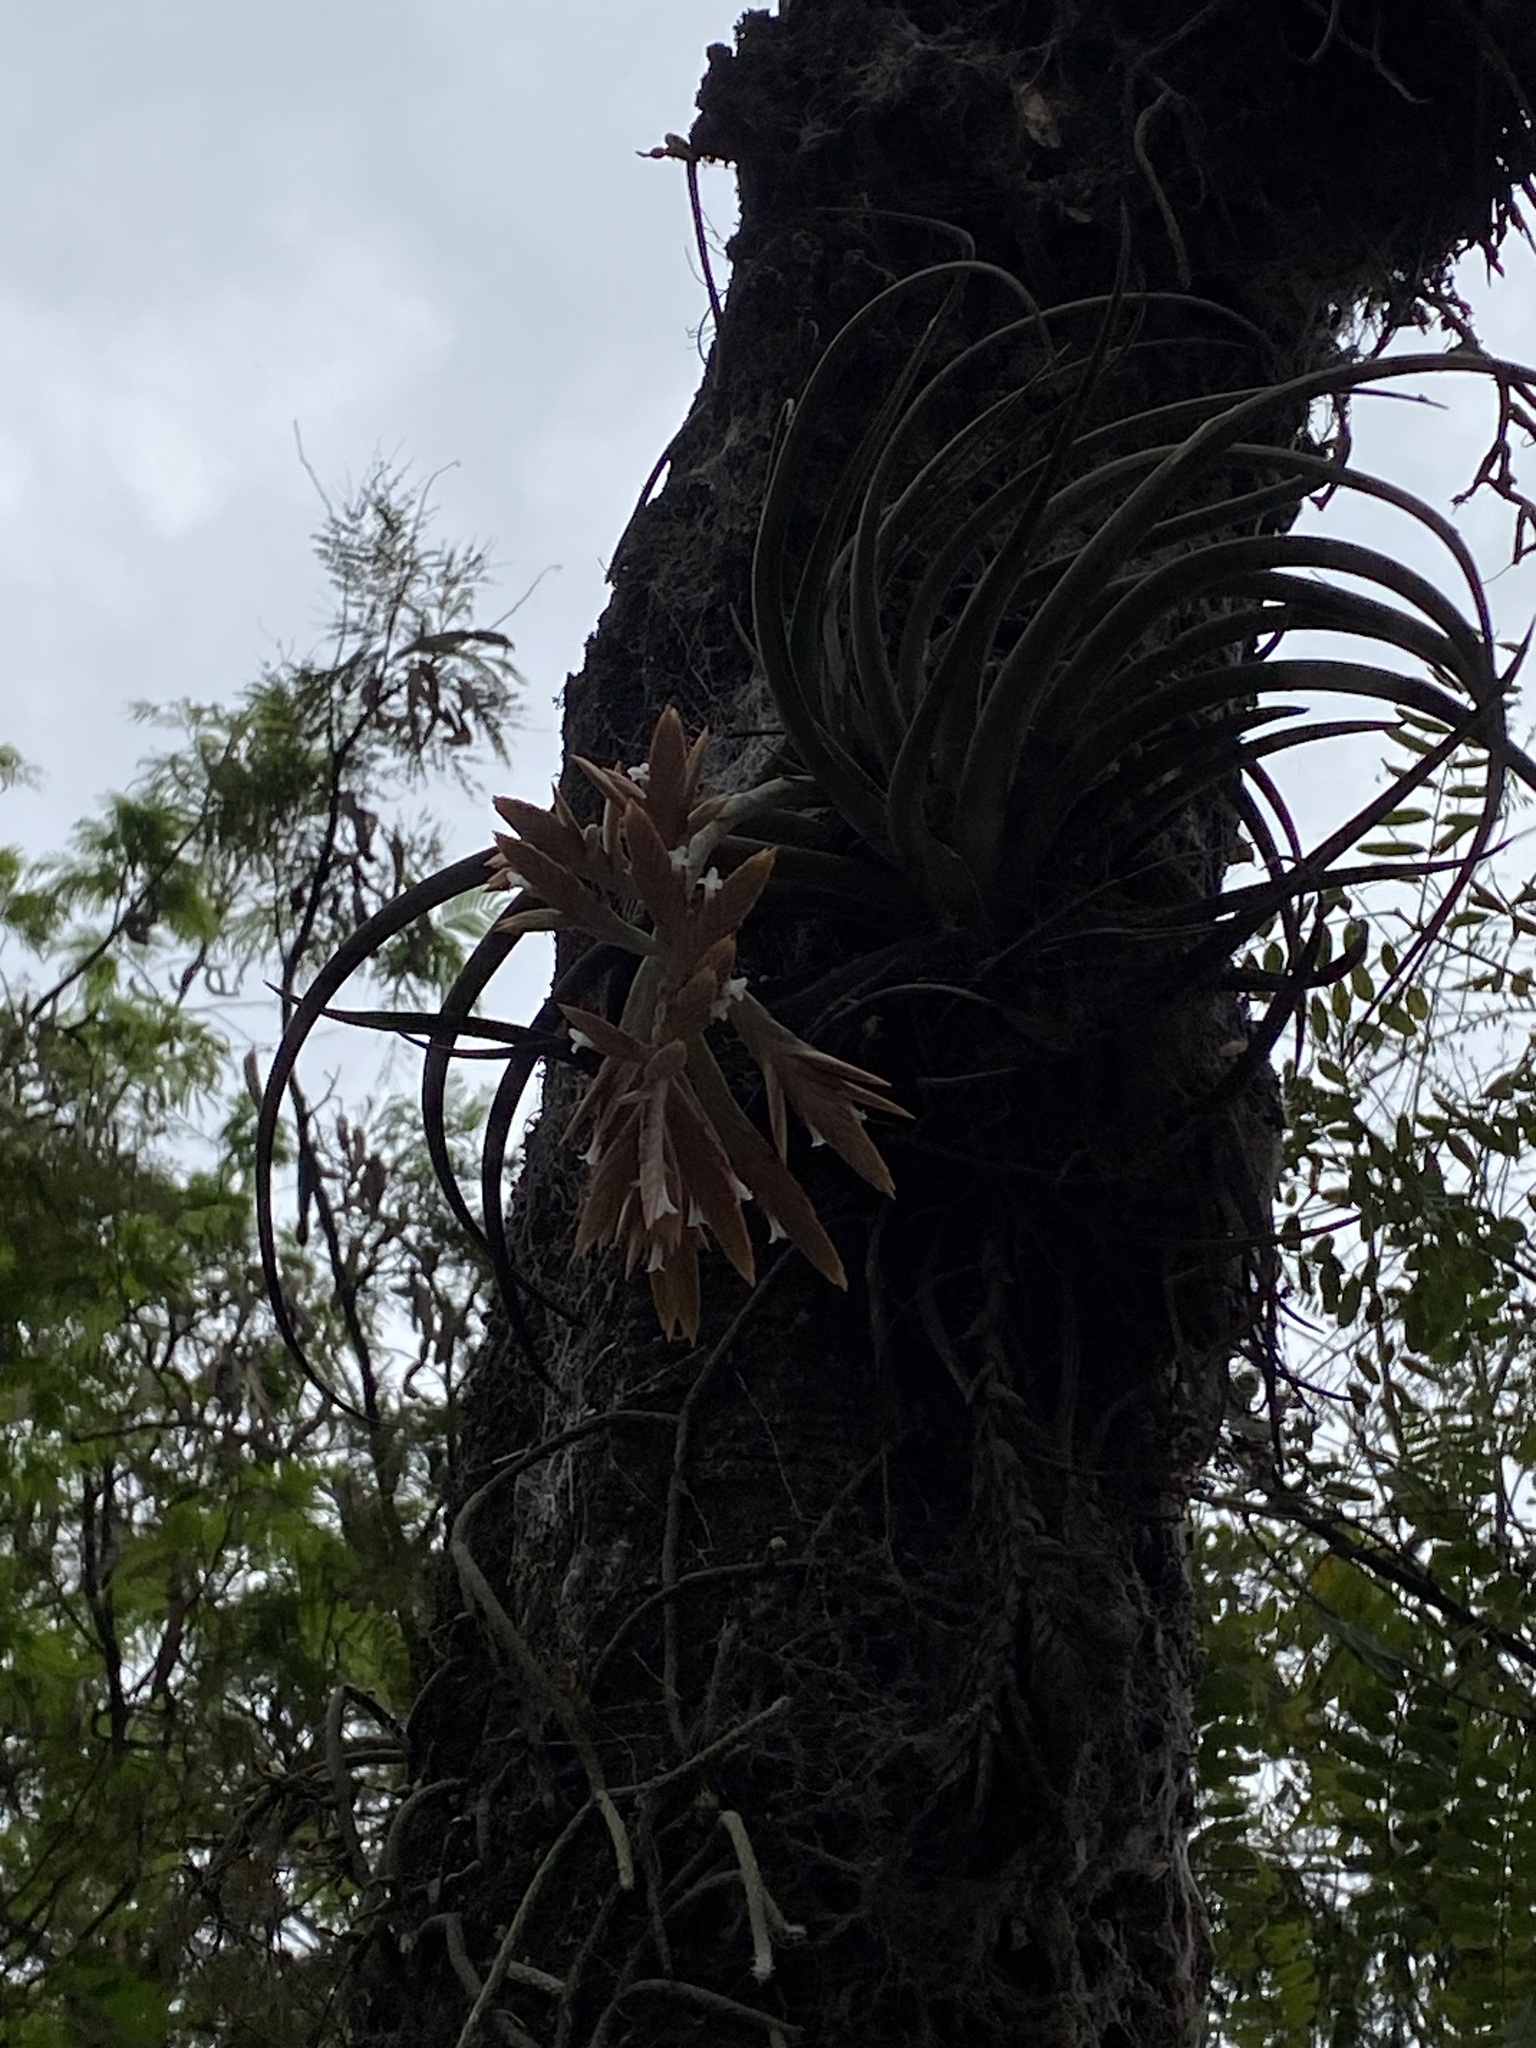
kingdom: Plantae
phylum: Tracheophyta
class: Liliopsida
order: Poales
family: Bromeliaceae
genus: Tillandsia
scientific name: Tillandsia didisticha
